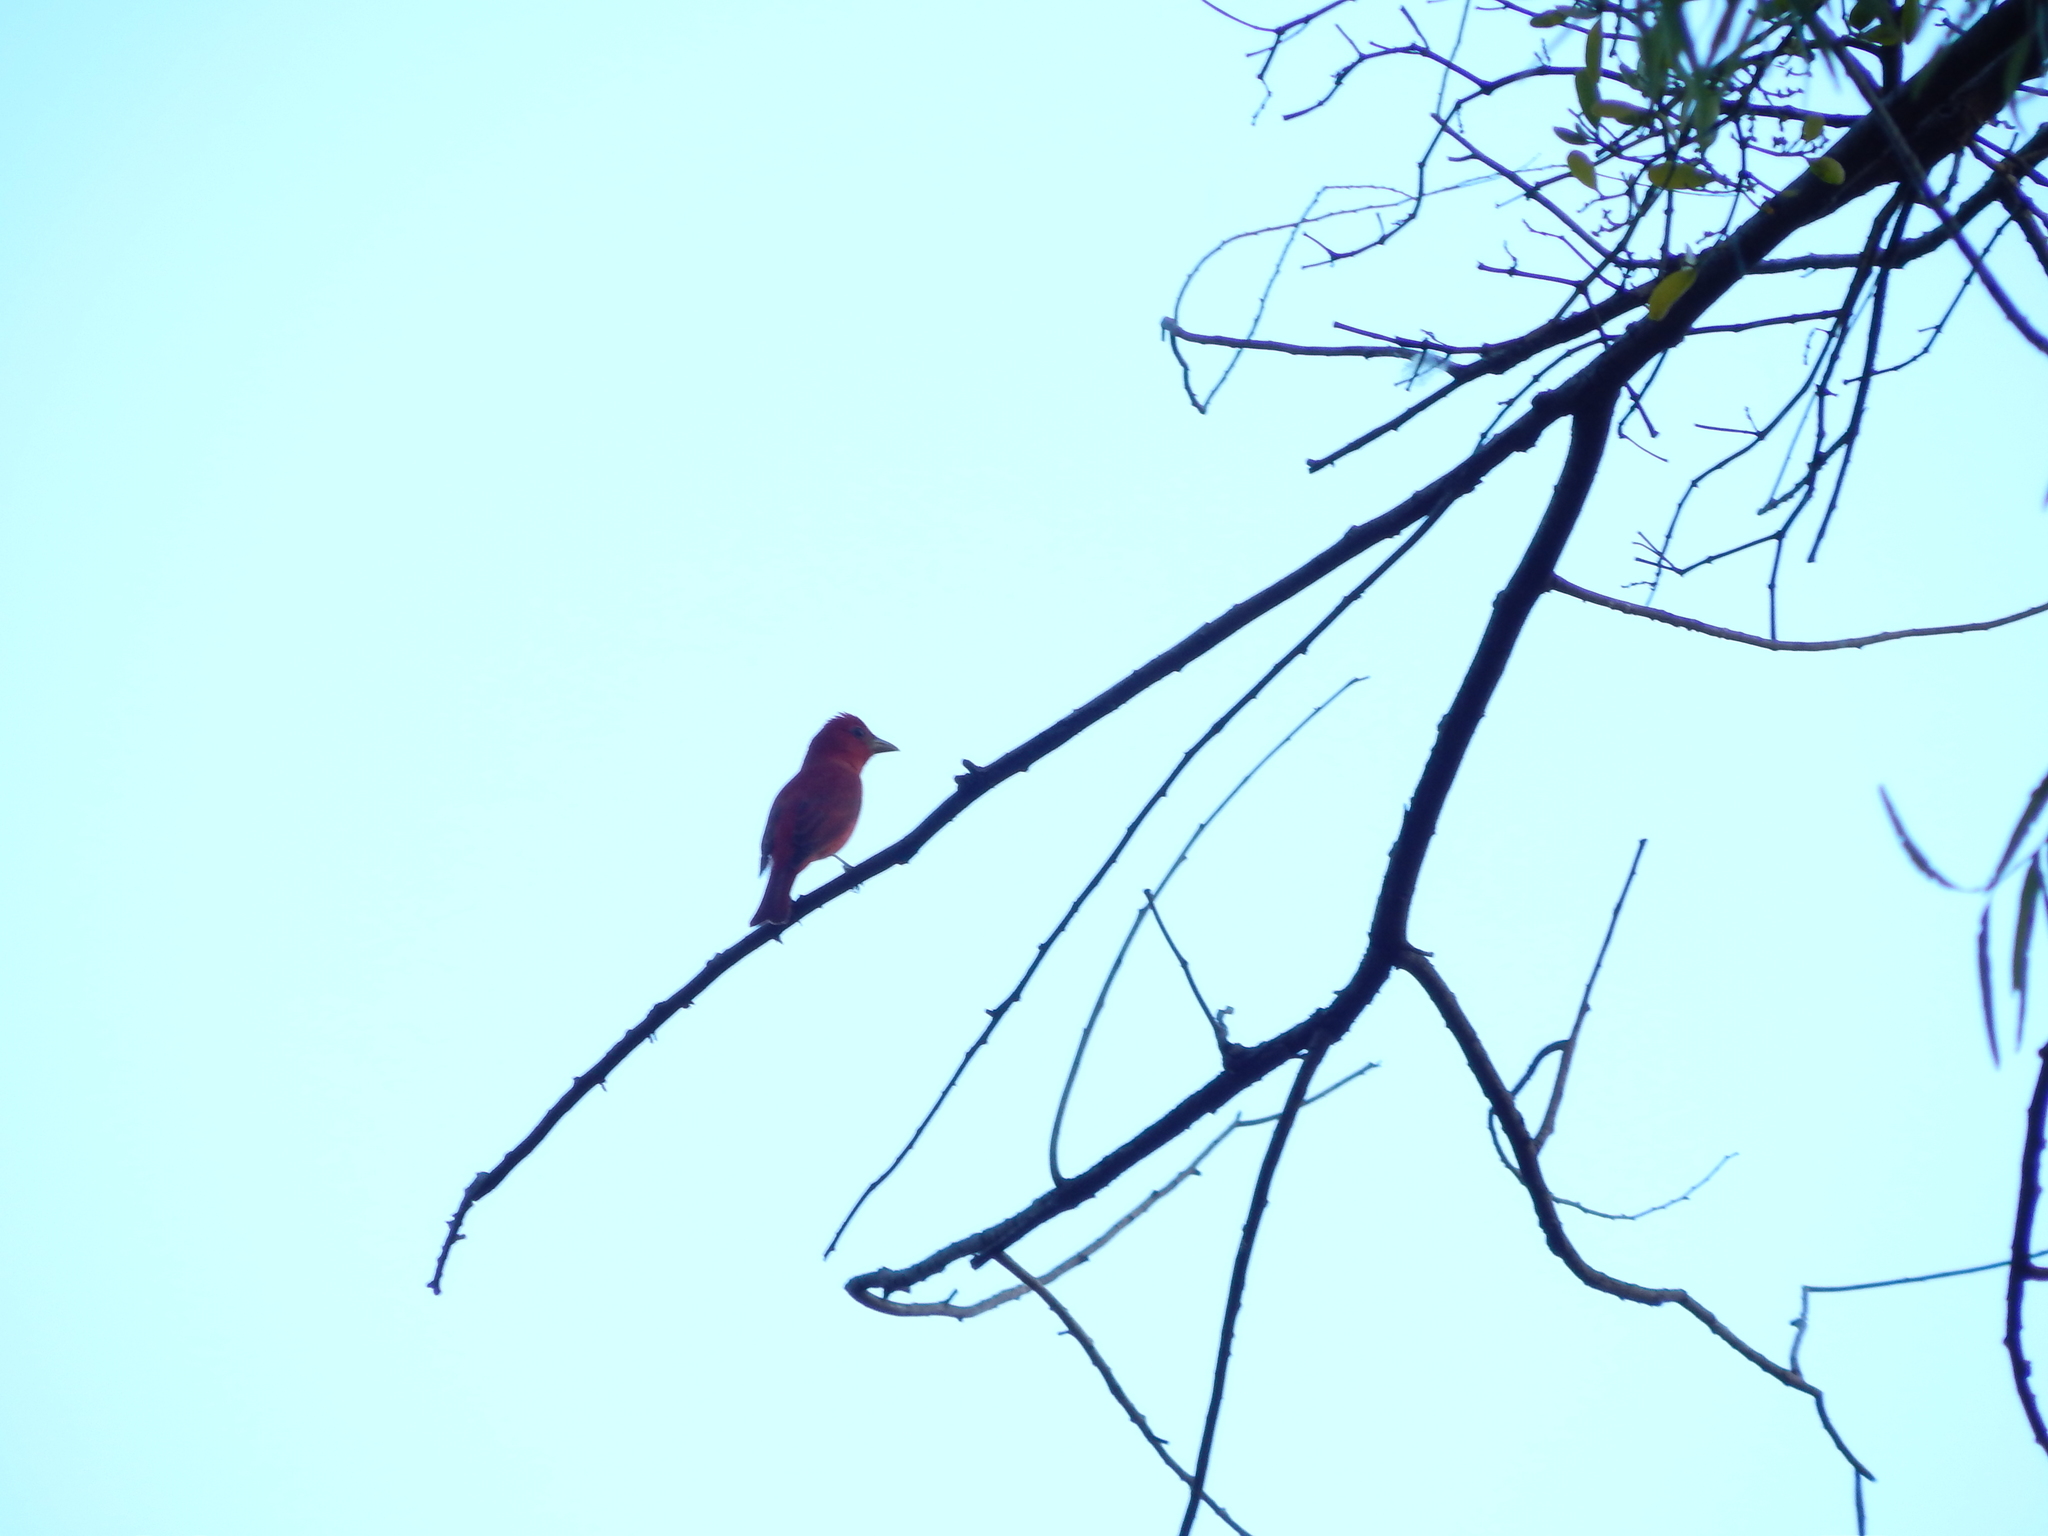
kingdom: Animalia
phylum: Chordata
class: Aves
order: Passeriformes
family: Cardinalidae
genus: Piranga
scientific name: Piranga rubra
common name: Summer tanager
